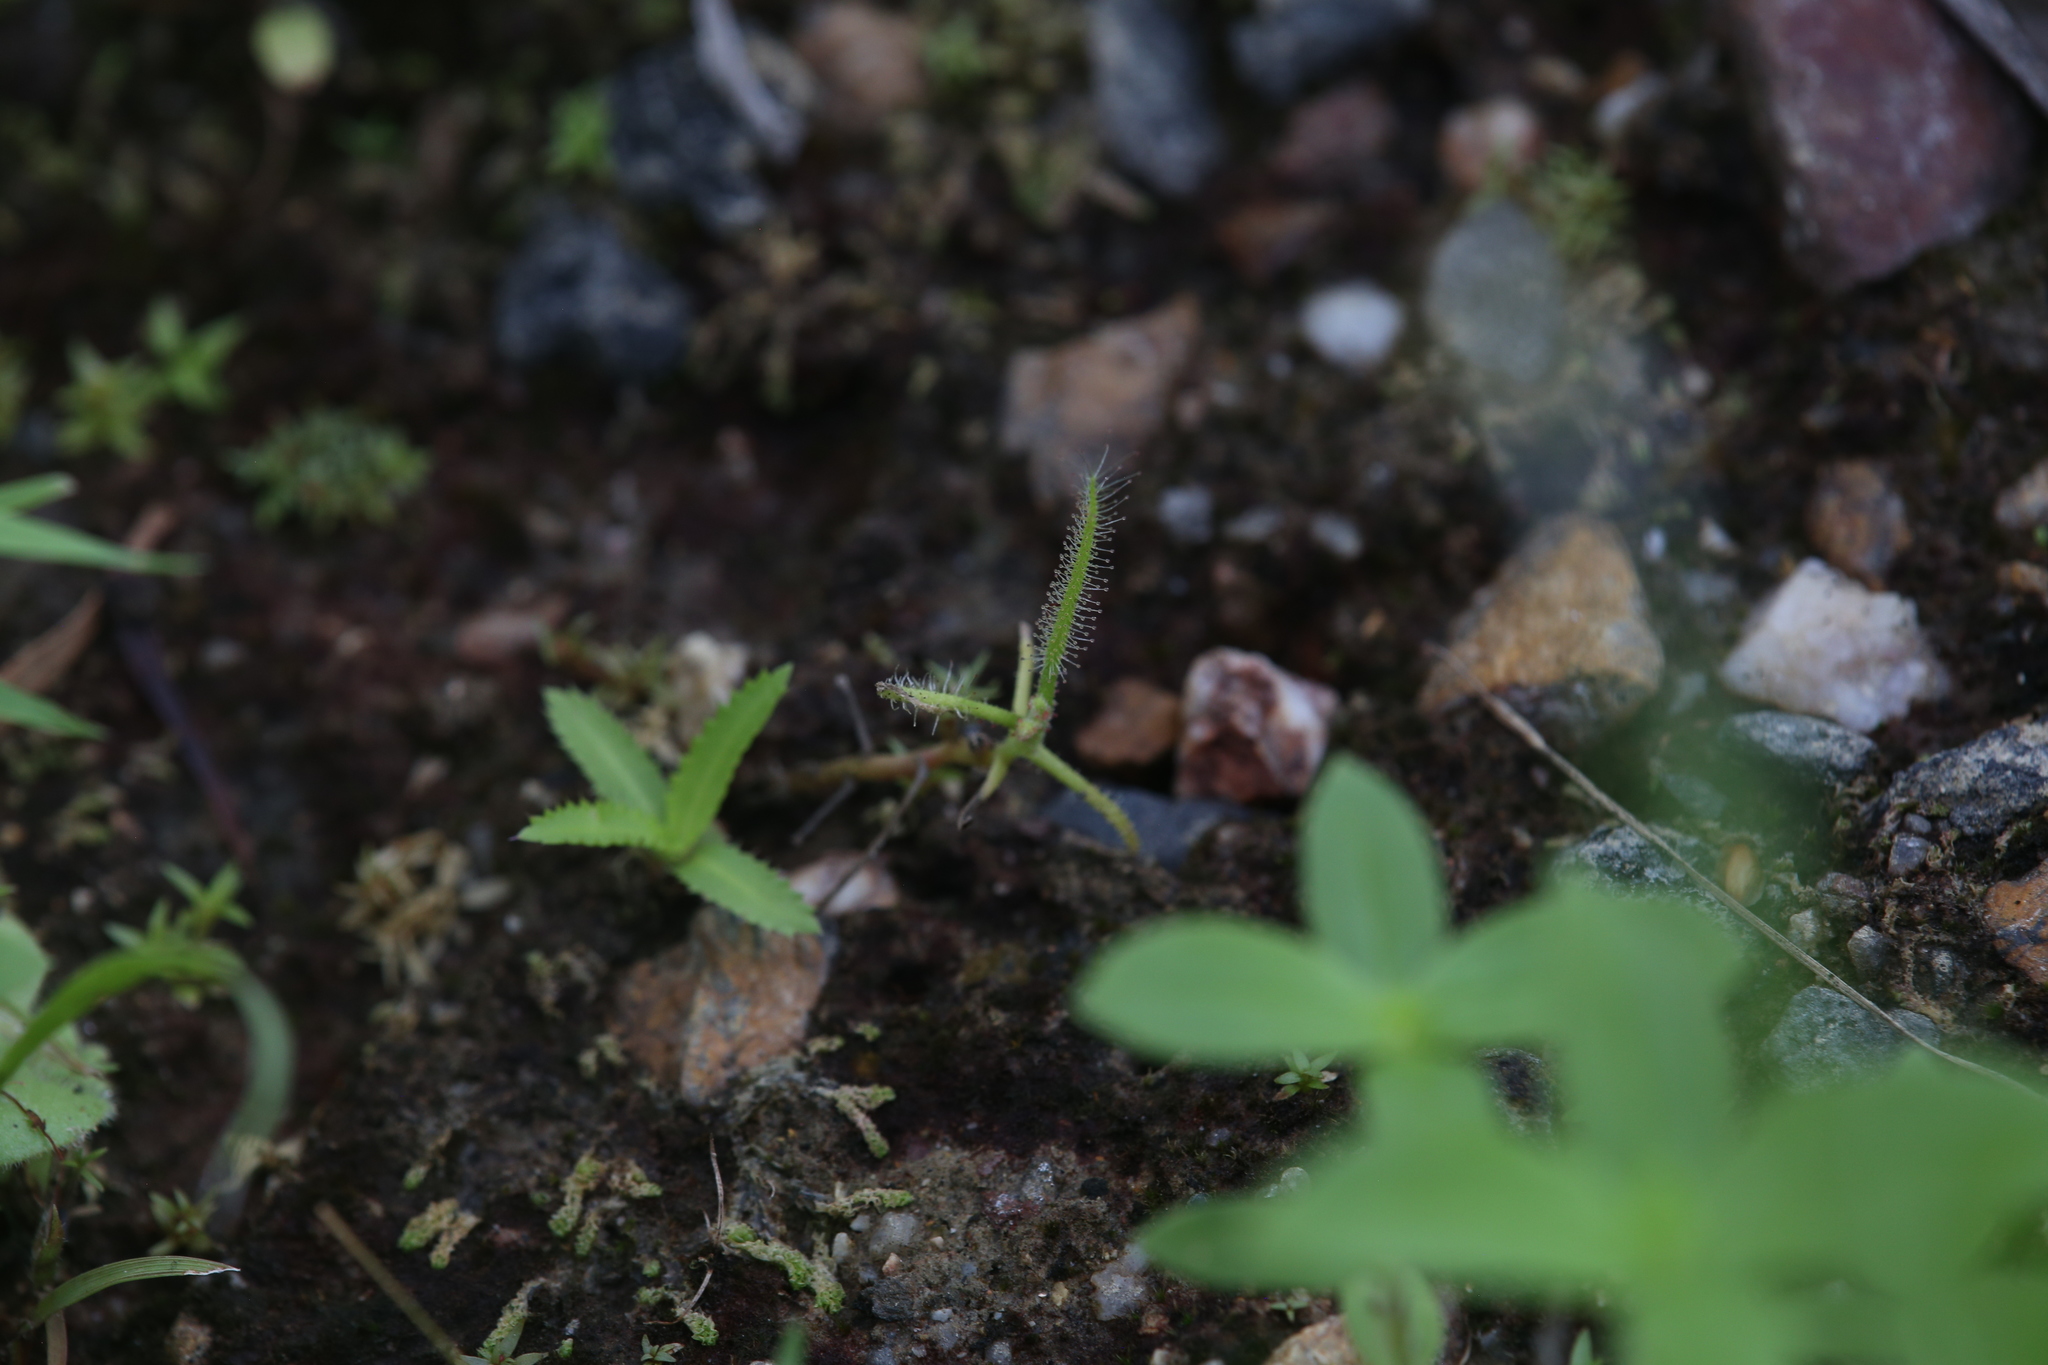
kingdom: Plantae
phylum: Tracheophyta
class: Magnoliopsida
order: Caryophyllales
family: Droseraceae
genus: Drosera
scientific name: Drosera indica
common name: Indian sundew
